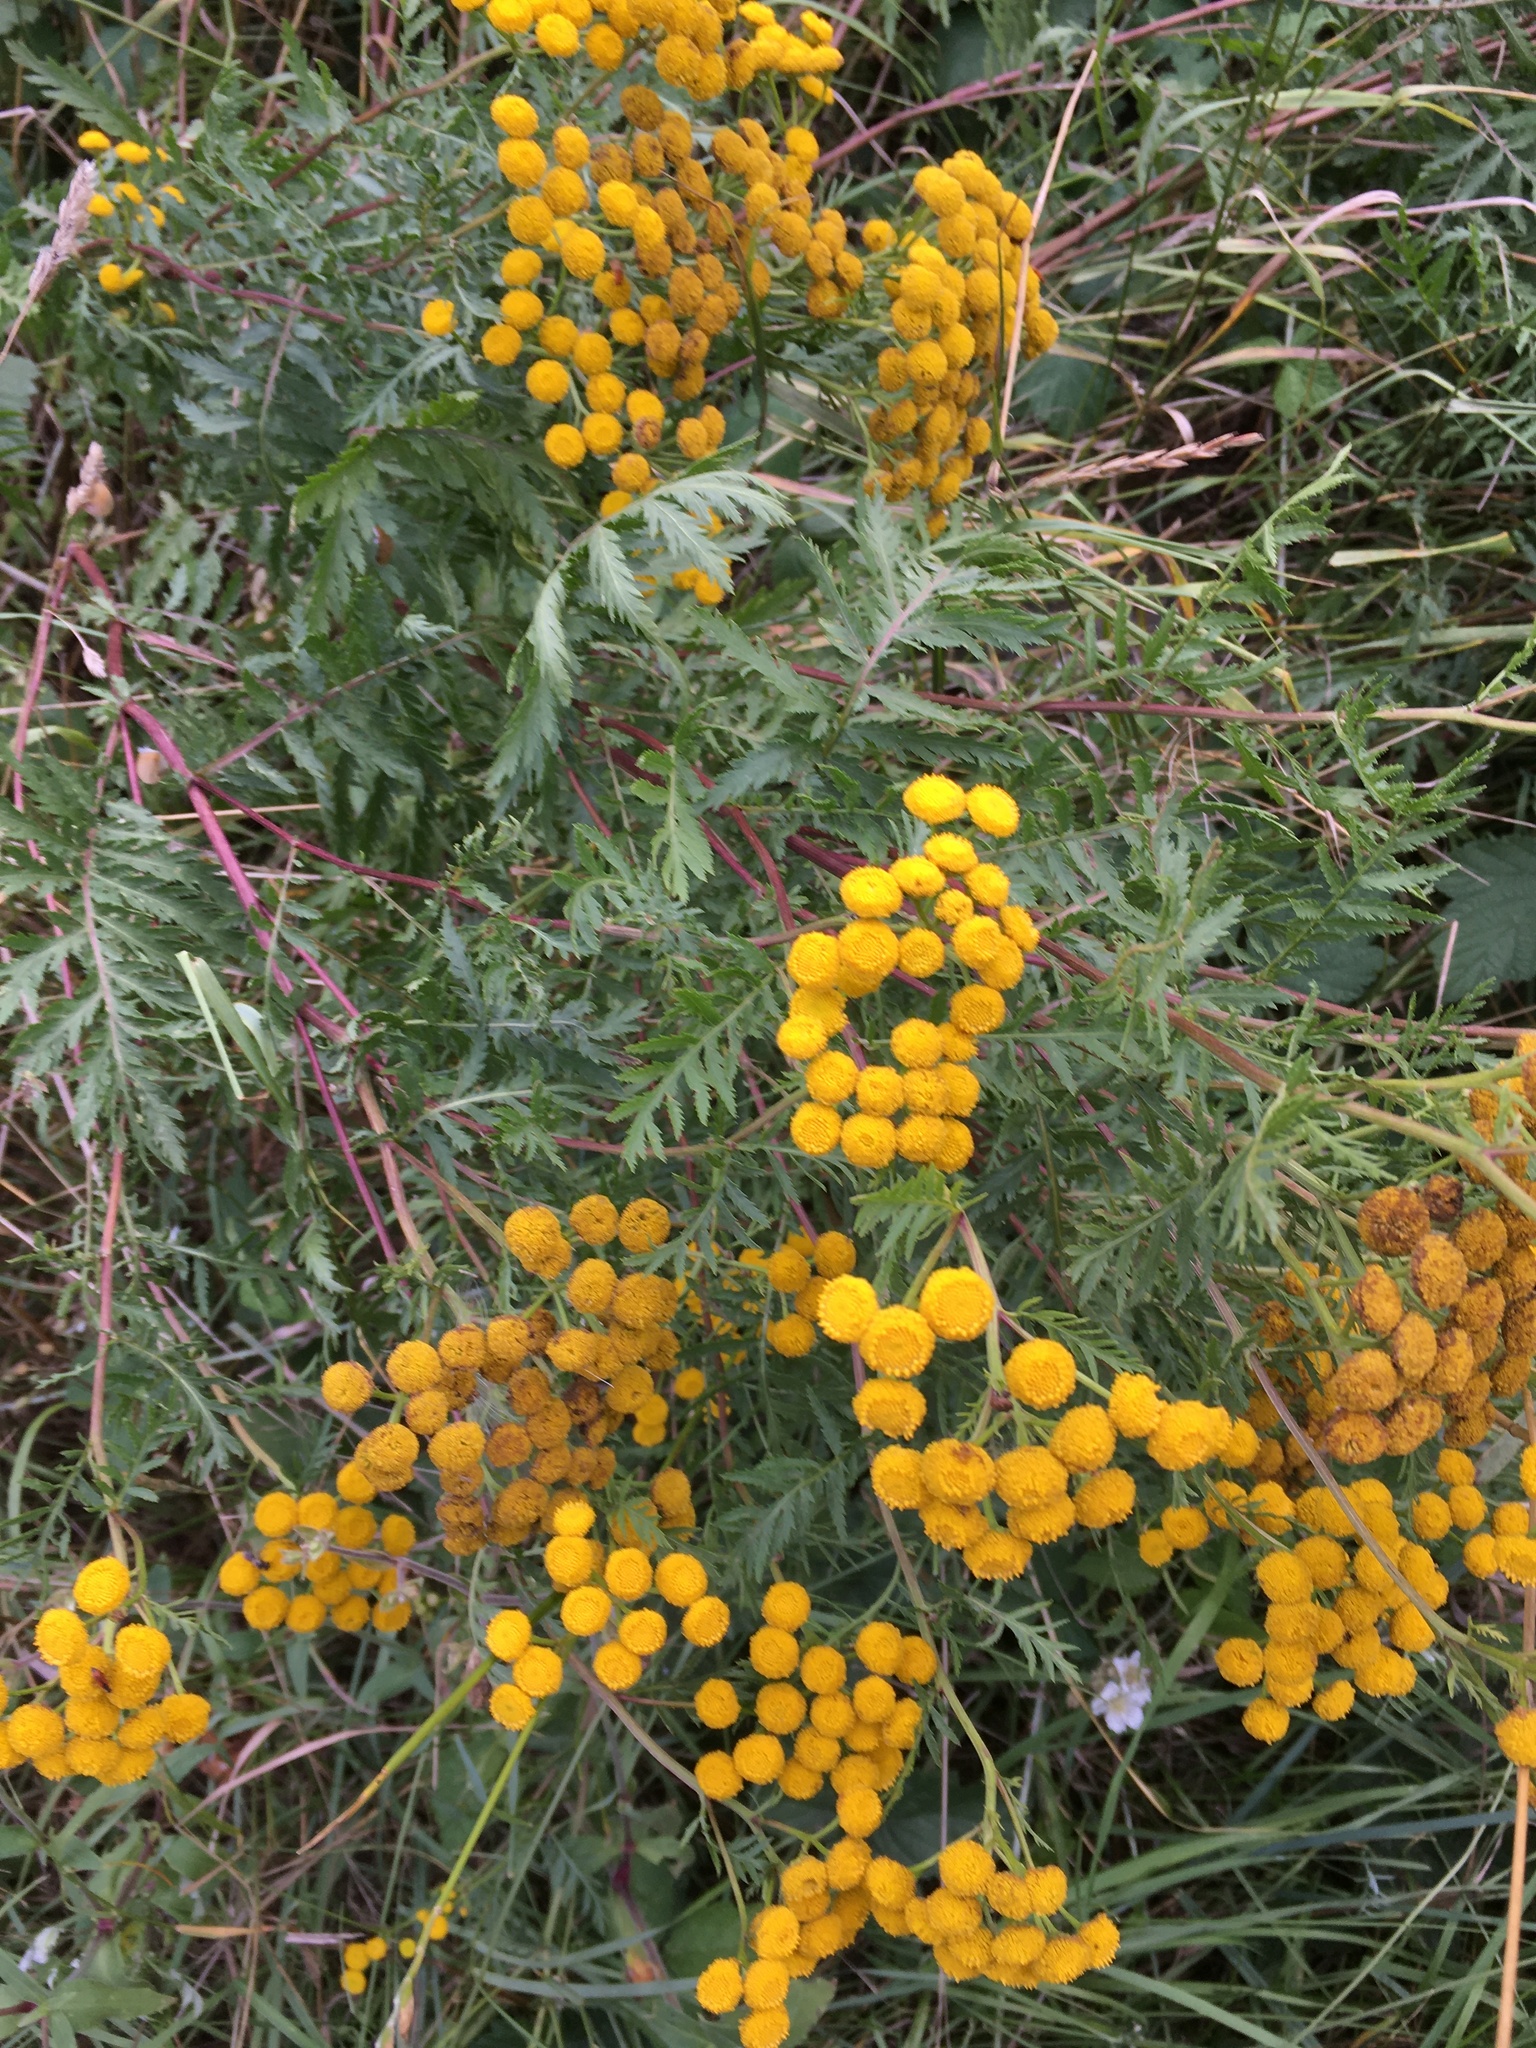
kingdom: Plantae
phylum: Tracheophyta
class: Magnoliopsida
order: Asterales
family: Asteraceae
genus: Tanacetum
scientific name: Tanacetum vulgare
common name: Common tansy
